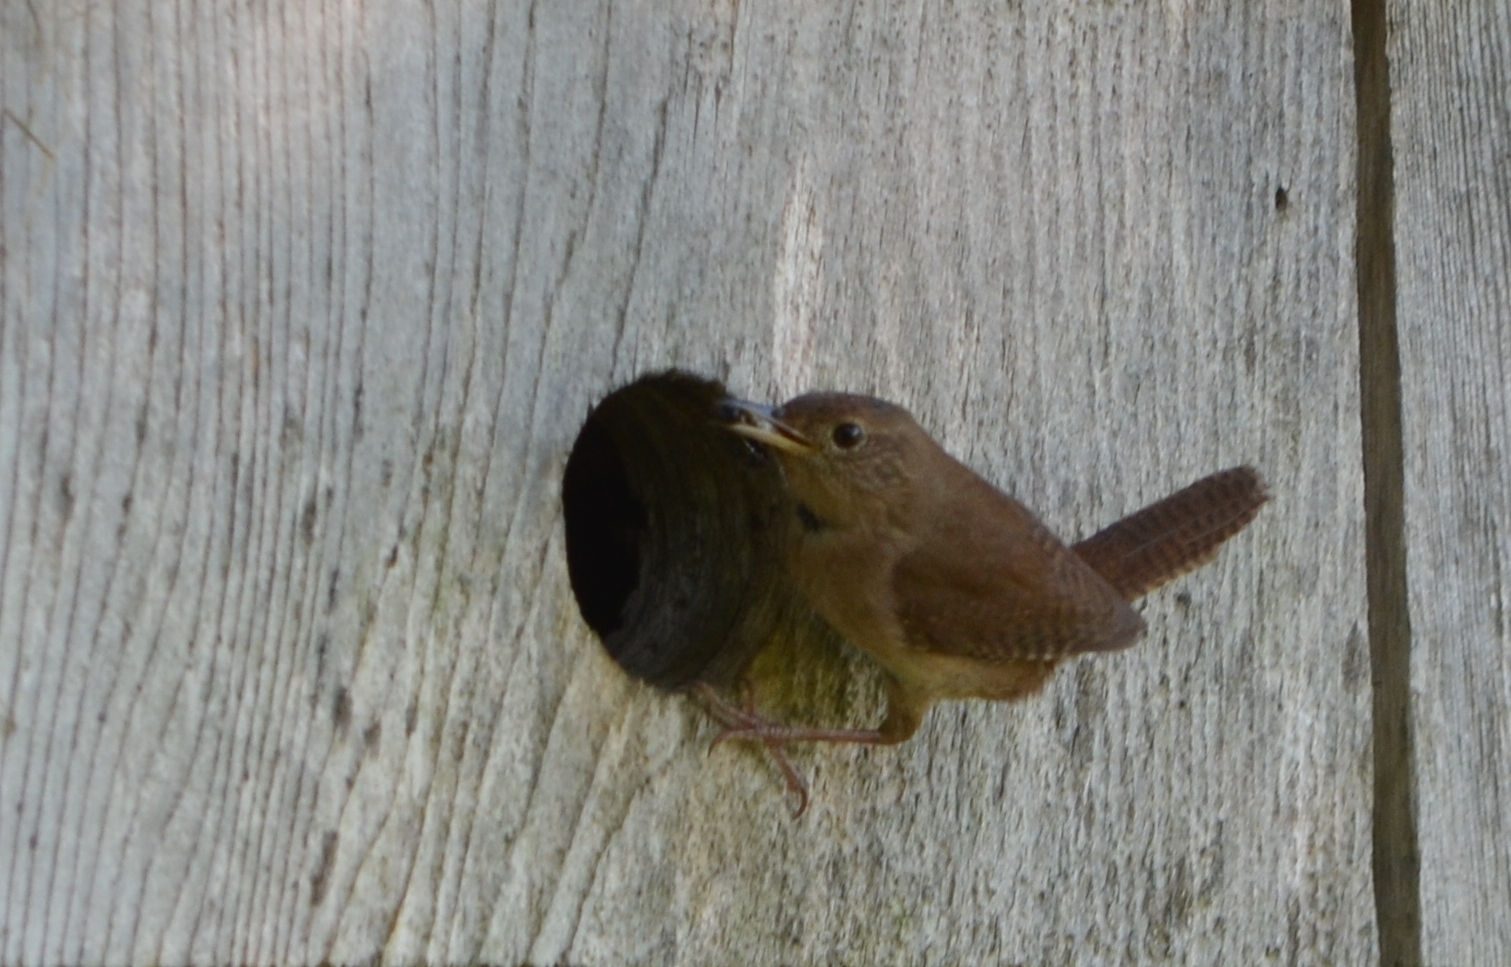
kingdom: Animalia
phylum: Chordata
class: Aves
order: Passeriformes
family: Troglodytidae
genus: Troglodytes
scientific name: Troglodytes aedon
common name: House wren
